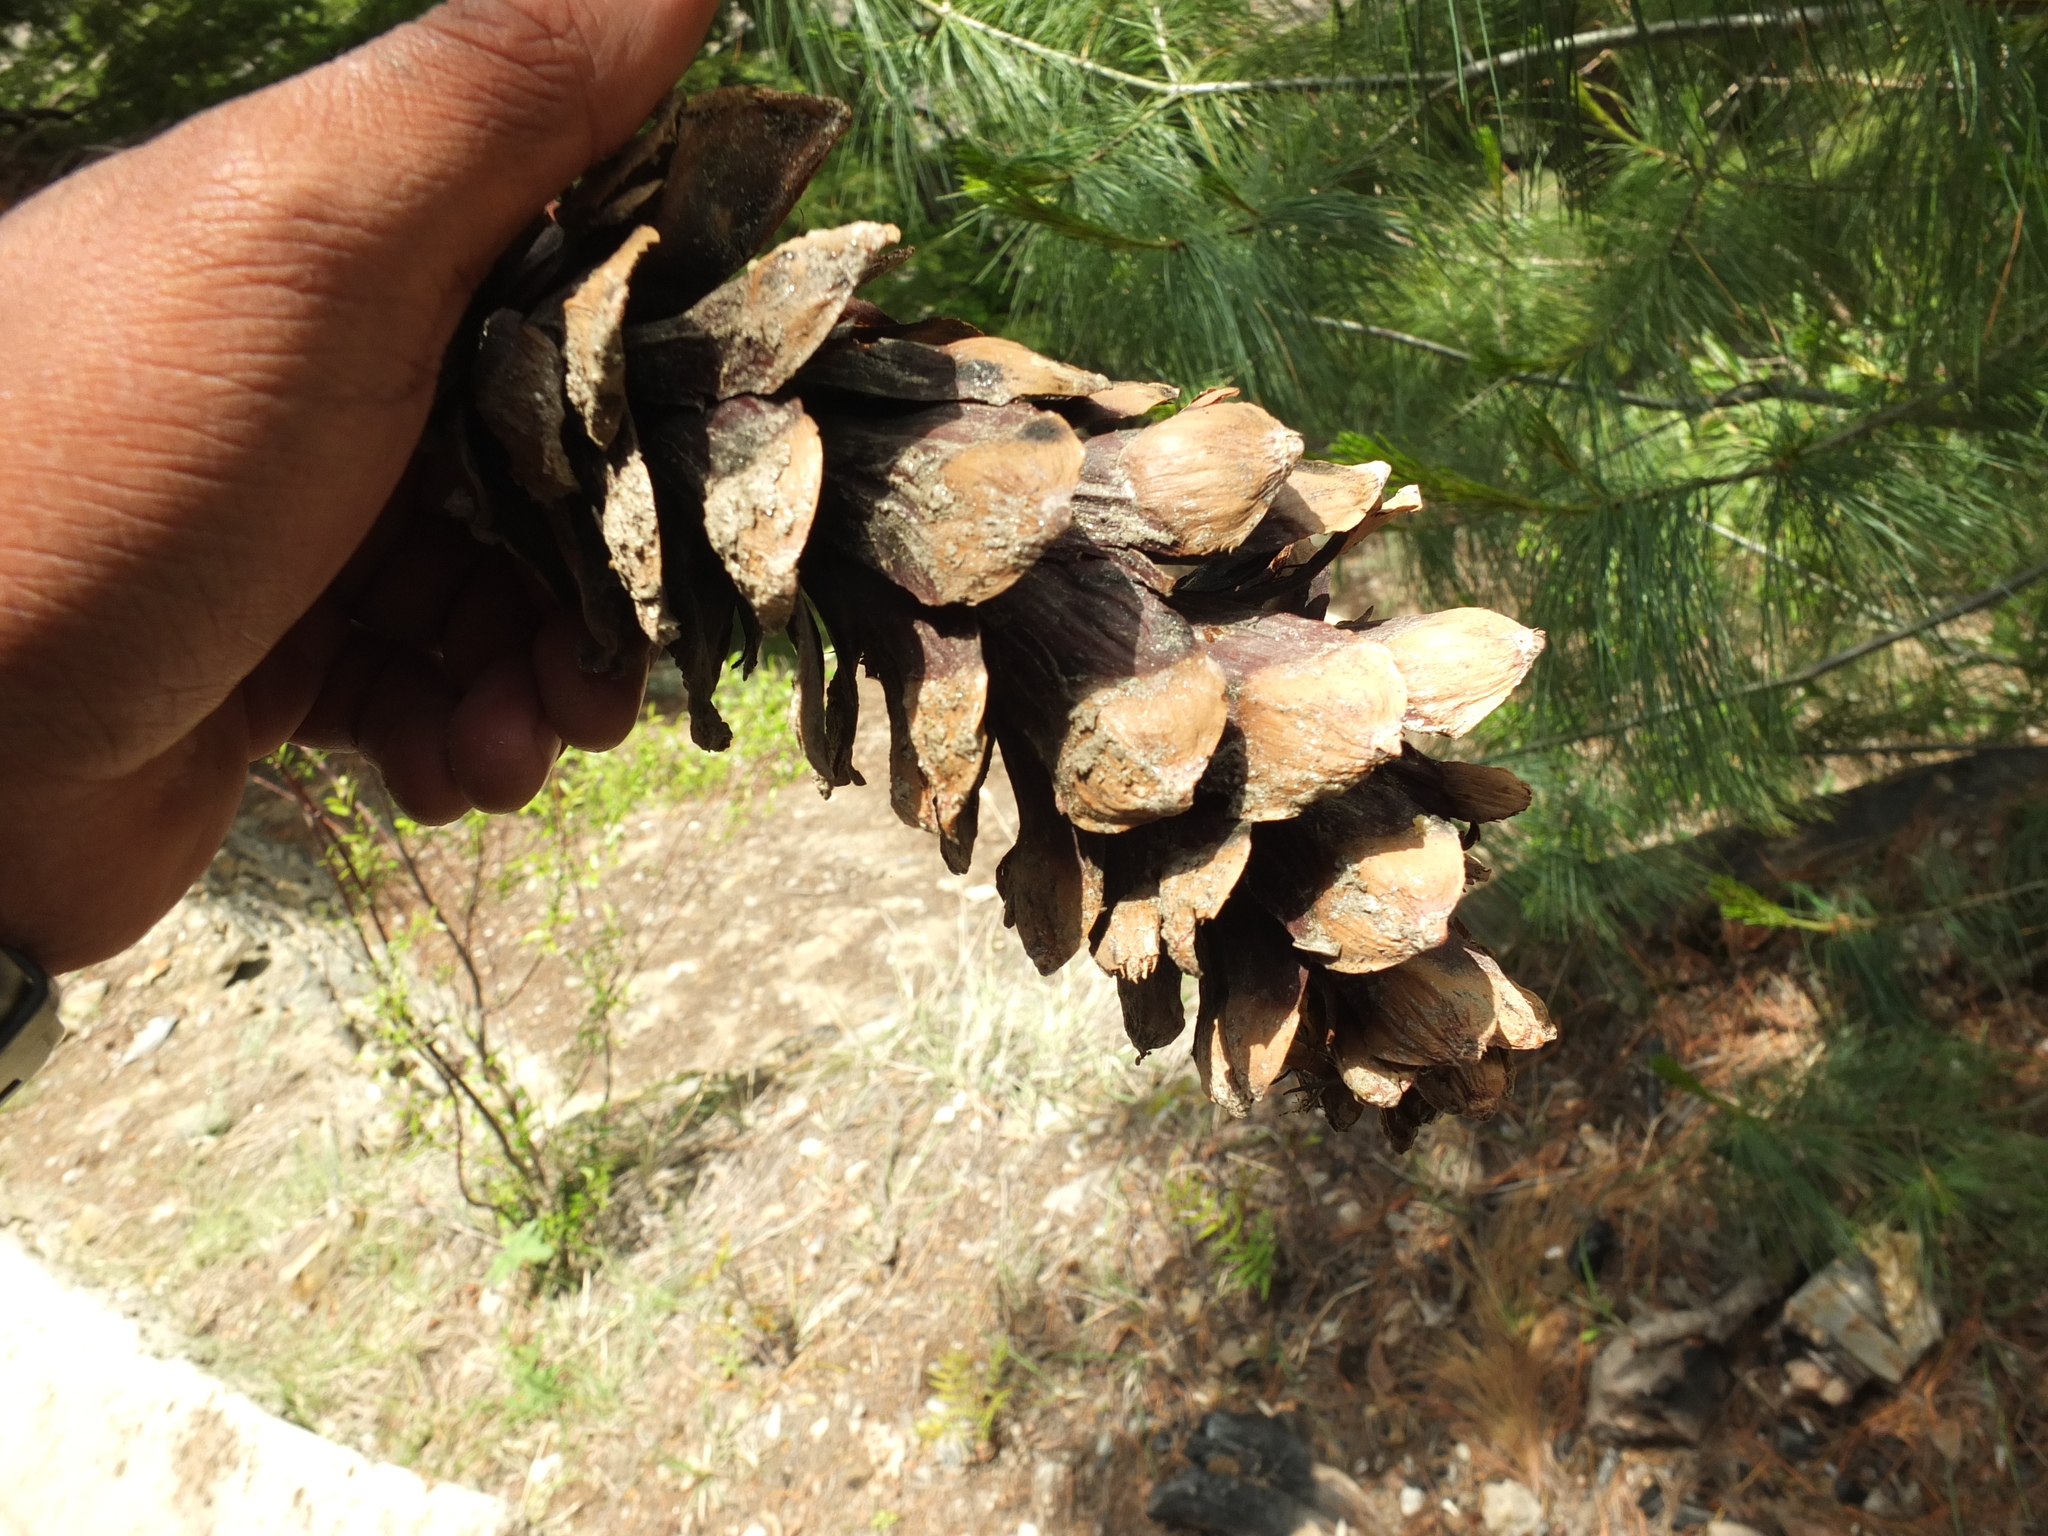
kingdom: Plantae
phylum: Tracheophyta
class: Pinopsida
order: Pinales
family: Pinaceae
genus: Pinus
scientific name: Pinus wallichiana
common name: Bhutan pine
